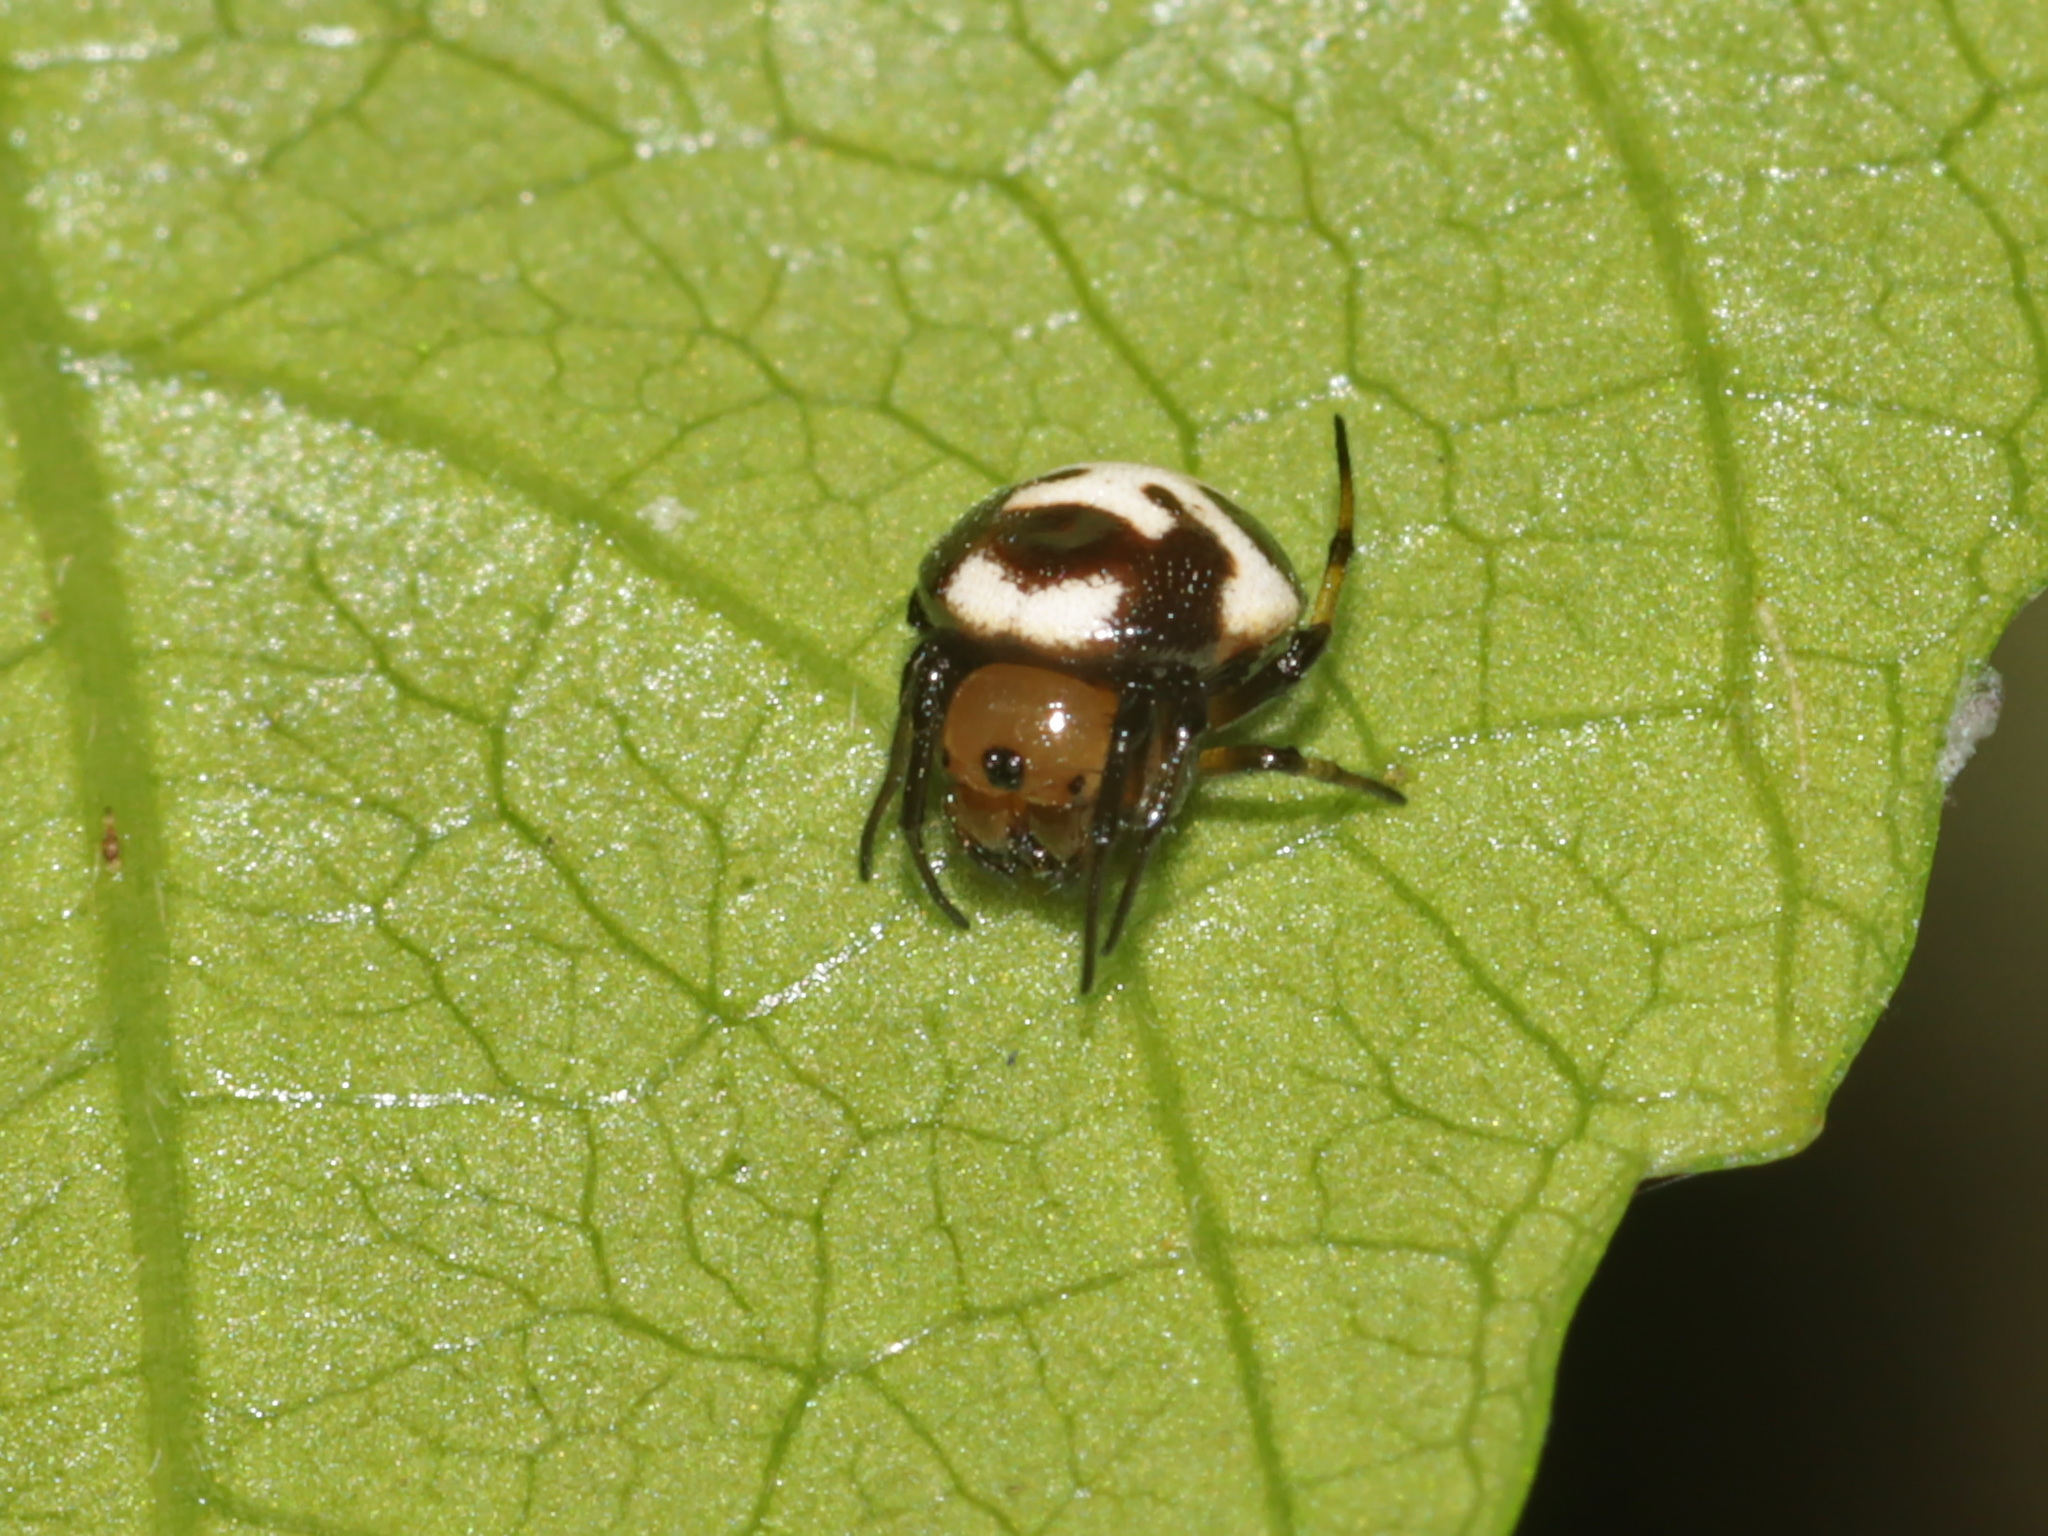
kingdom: Animalia
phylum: Arthropoda
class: Arachnida
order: Araneae
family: Araneidae
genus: Anepsion
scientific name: Anepsion maritatum
